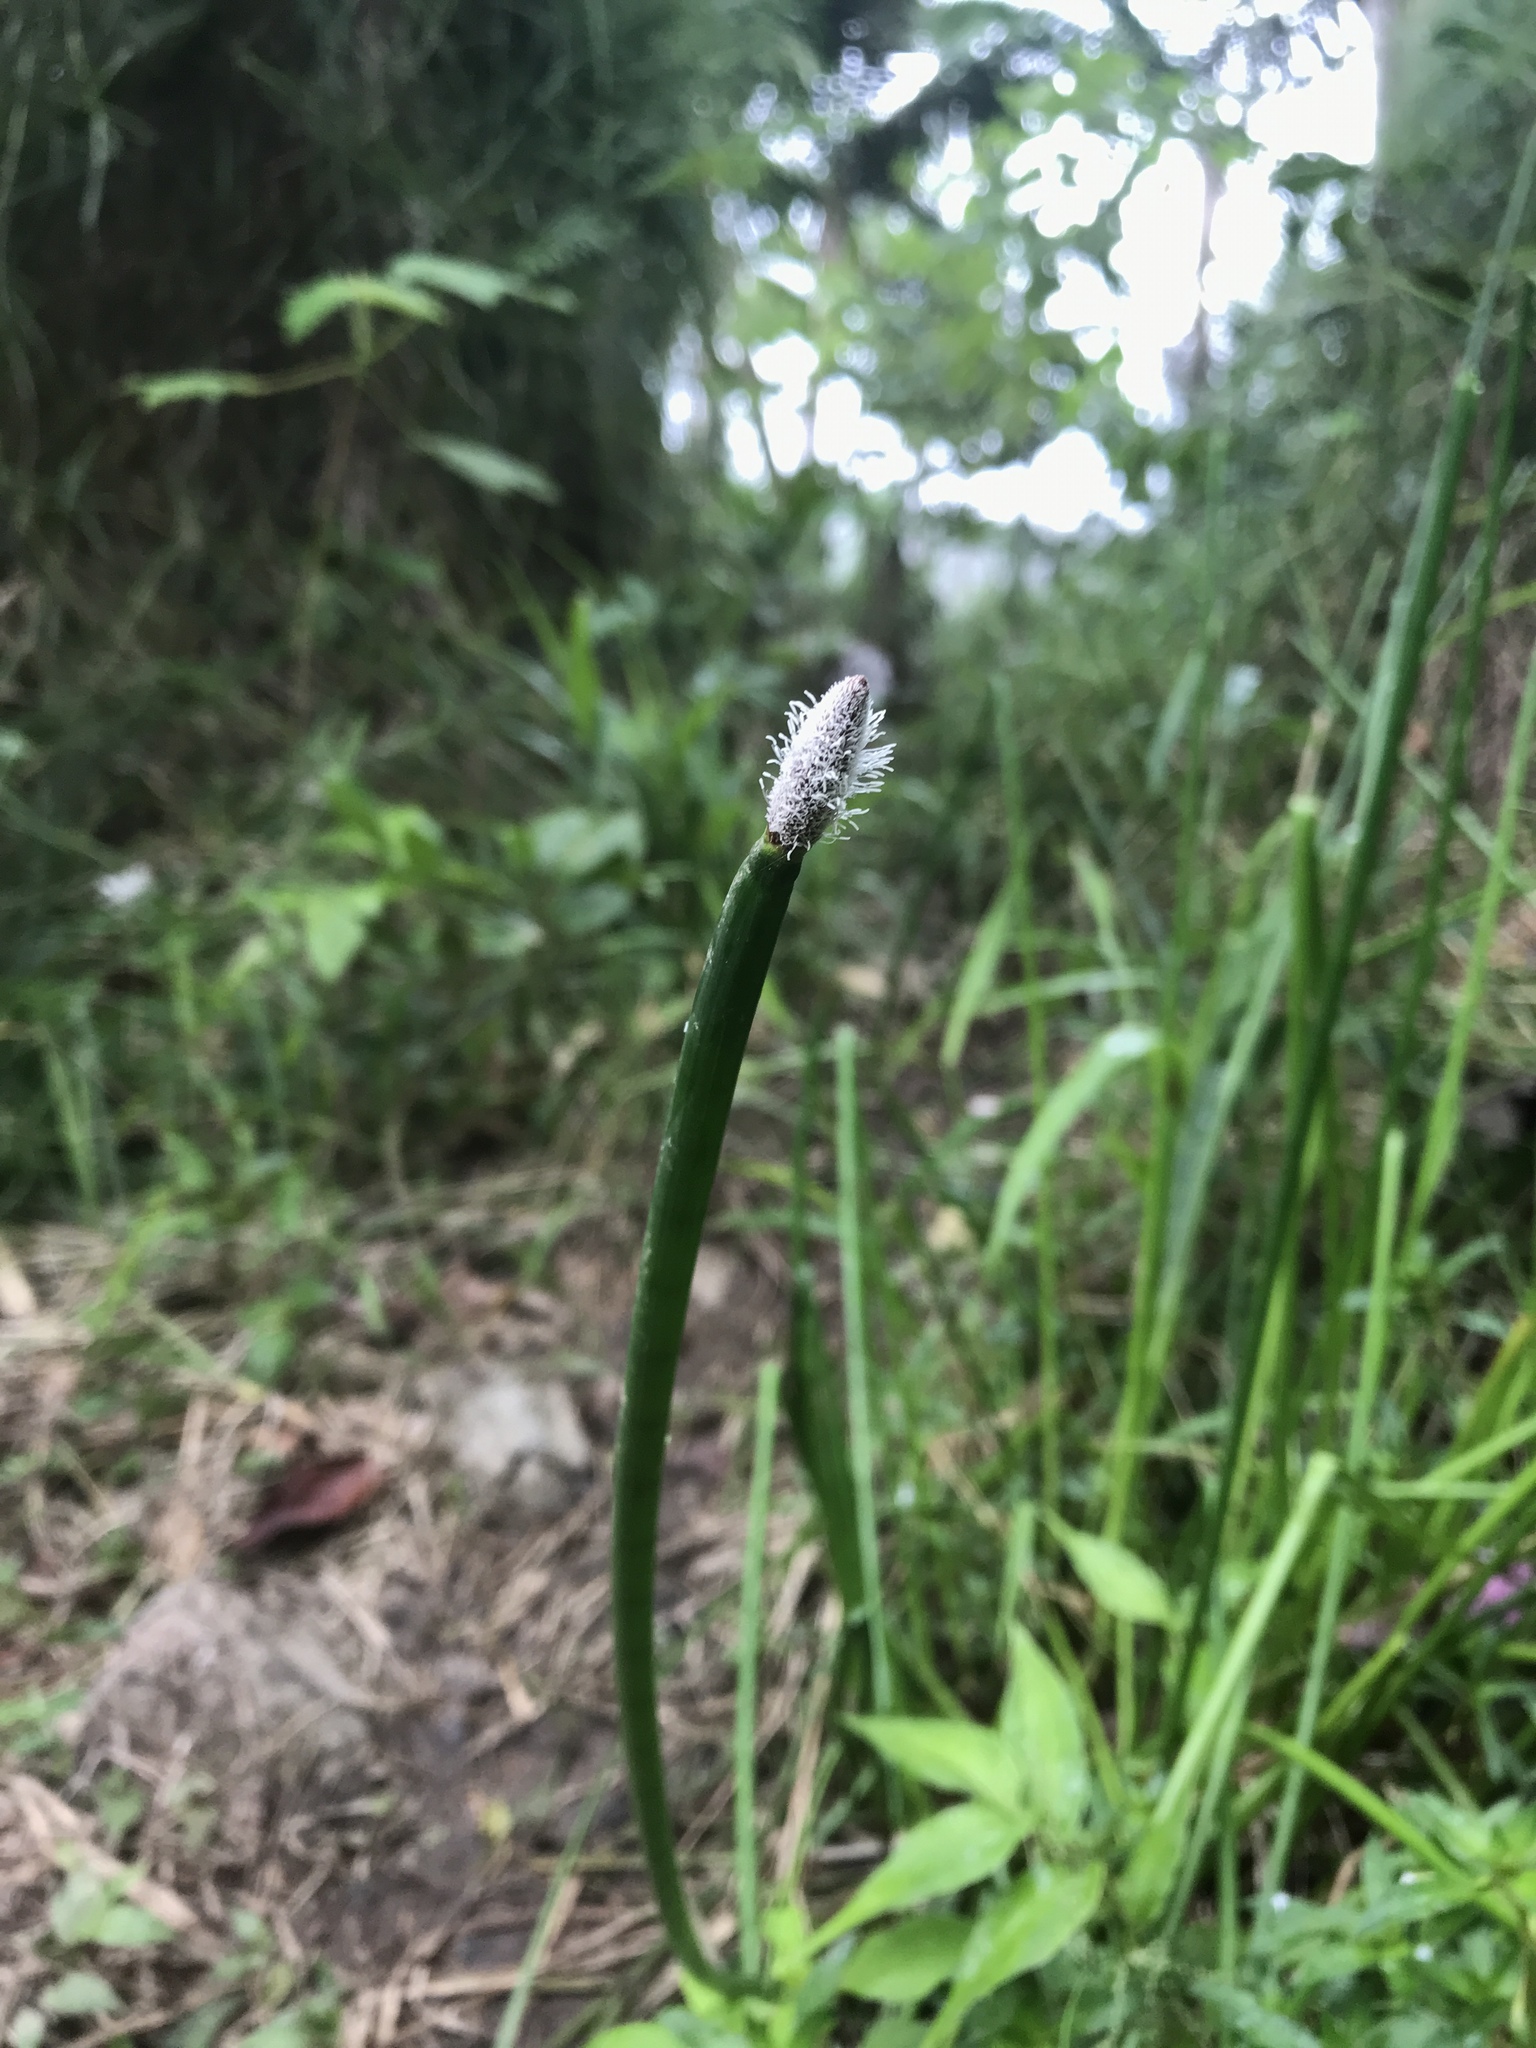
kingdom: Plantae
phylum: Tracheophyta
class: Liliopsida
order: Poales
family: Cyperaceae
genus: Eleocharis
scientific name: Eleocharis elegans
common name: Elegant spike-rush
